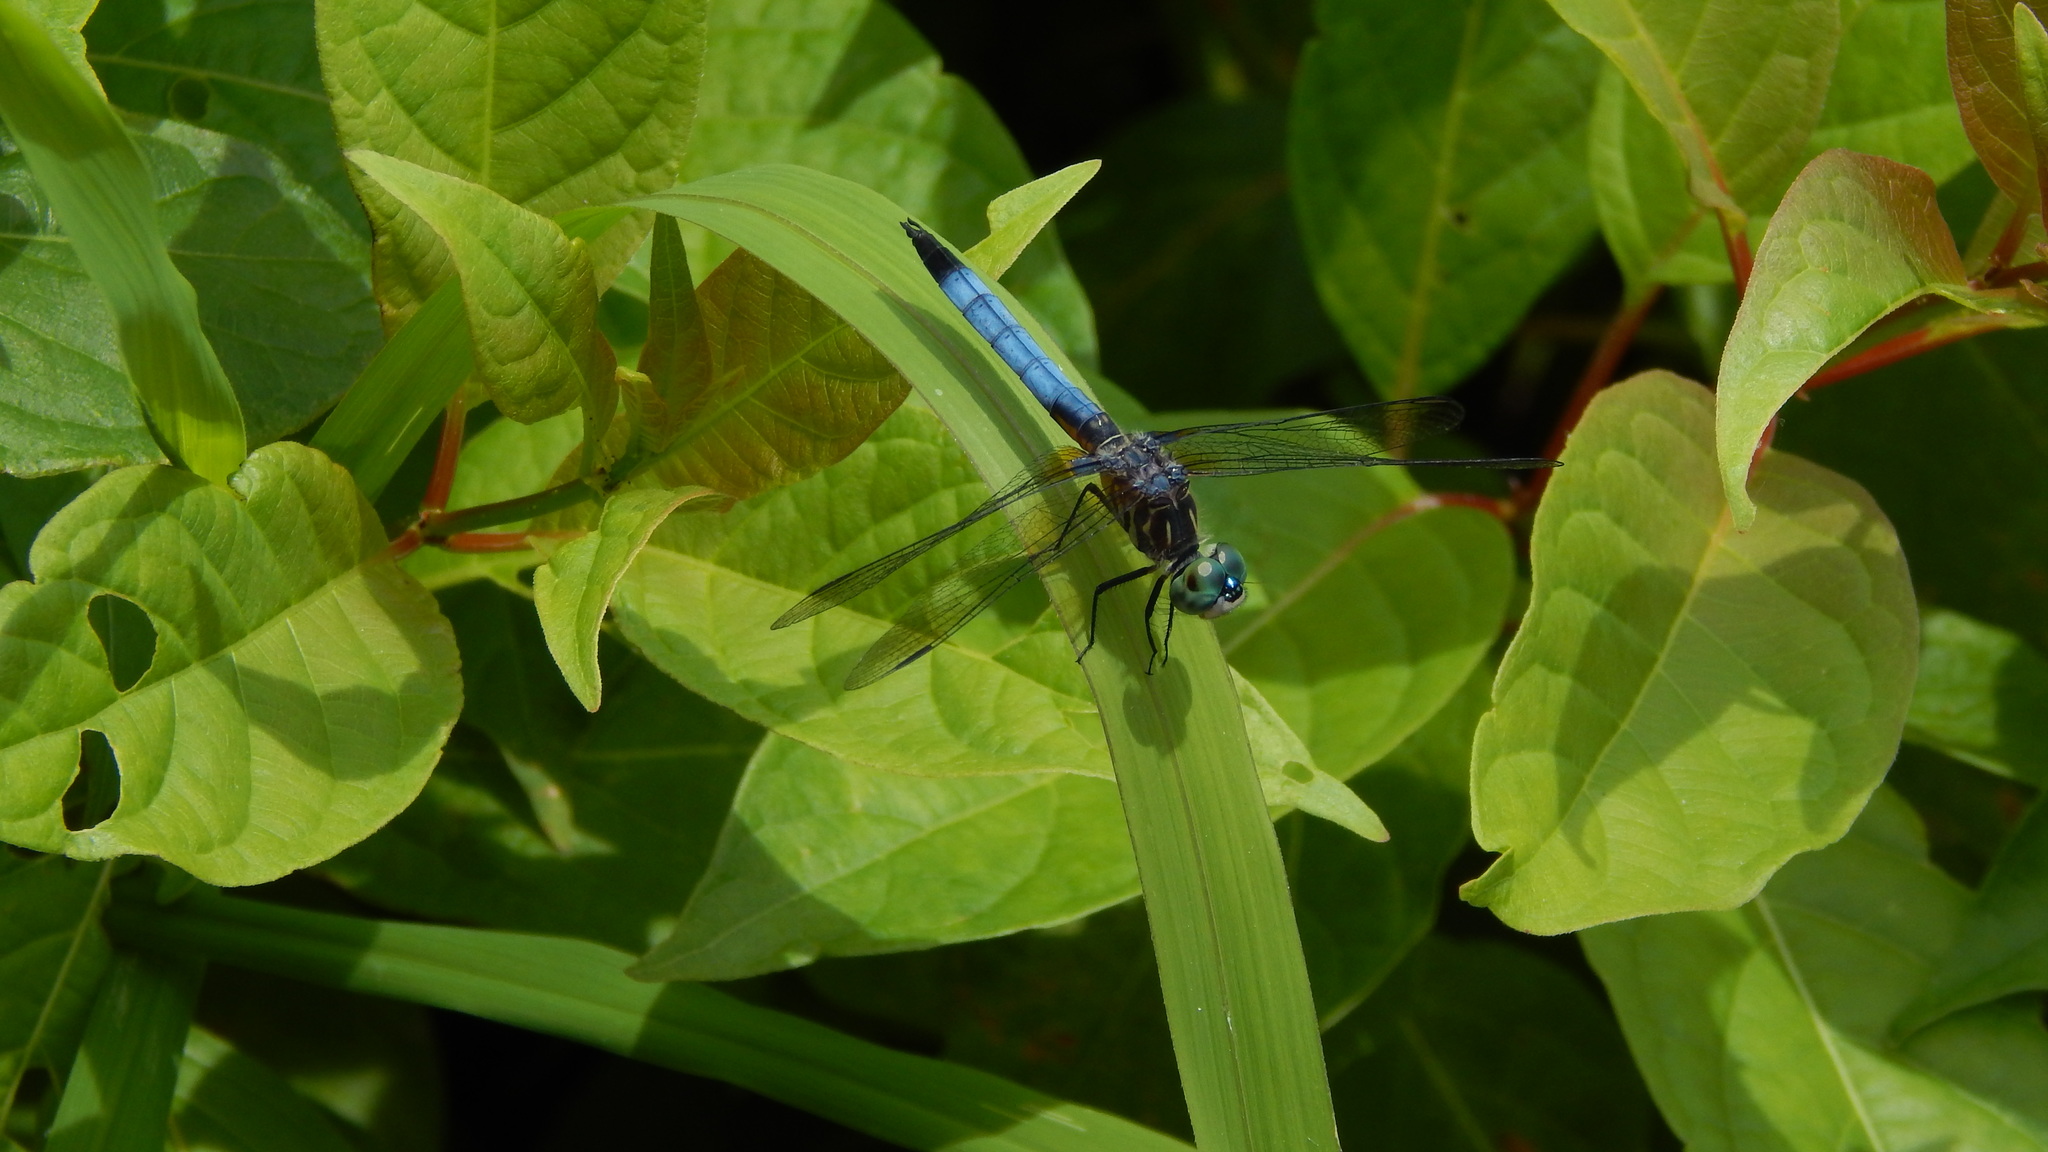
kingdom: Animalia
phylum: Arthropoda
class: Insecta
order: Odonata
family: Libellulidae
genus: Pachydiplax
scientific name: Pachydiplax longipennis
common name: Blue dasher
